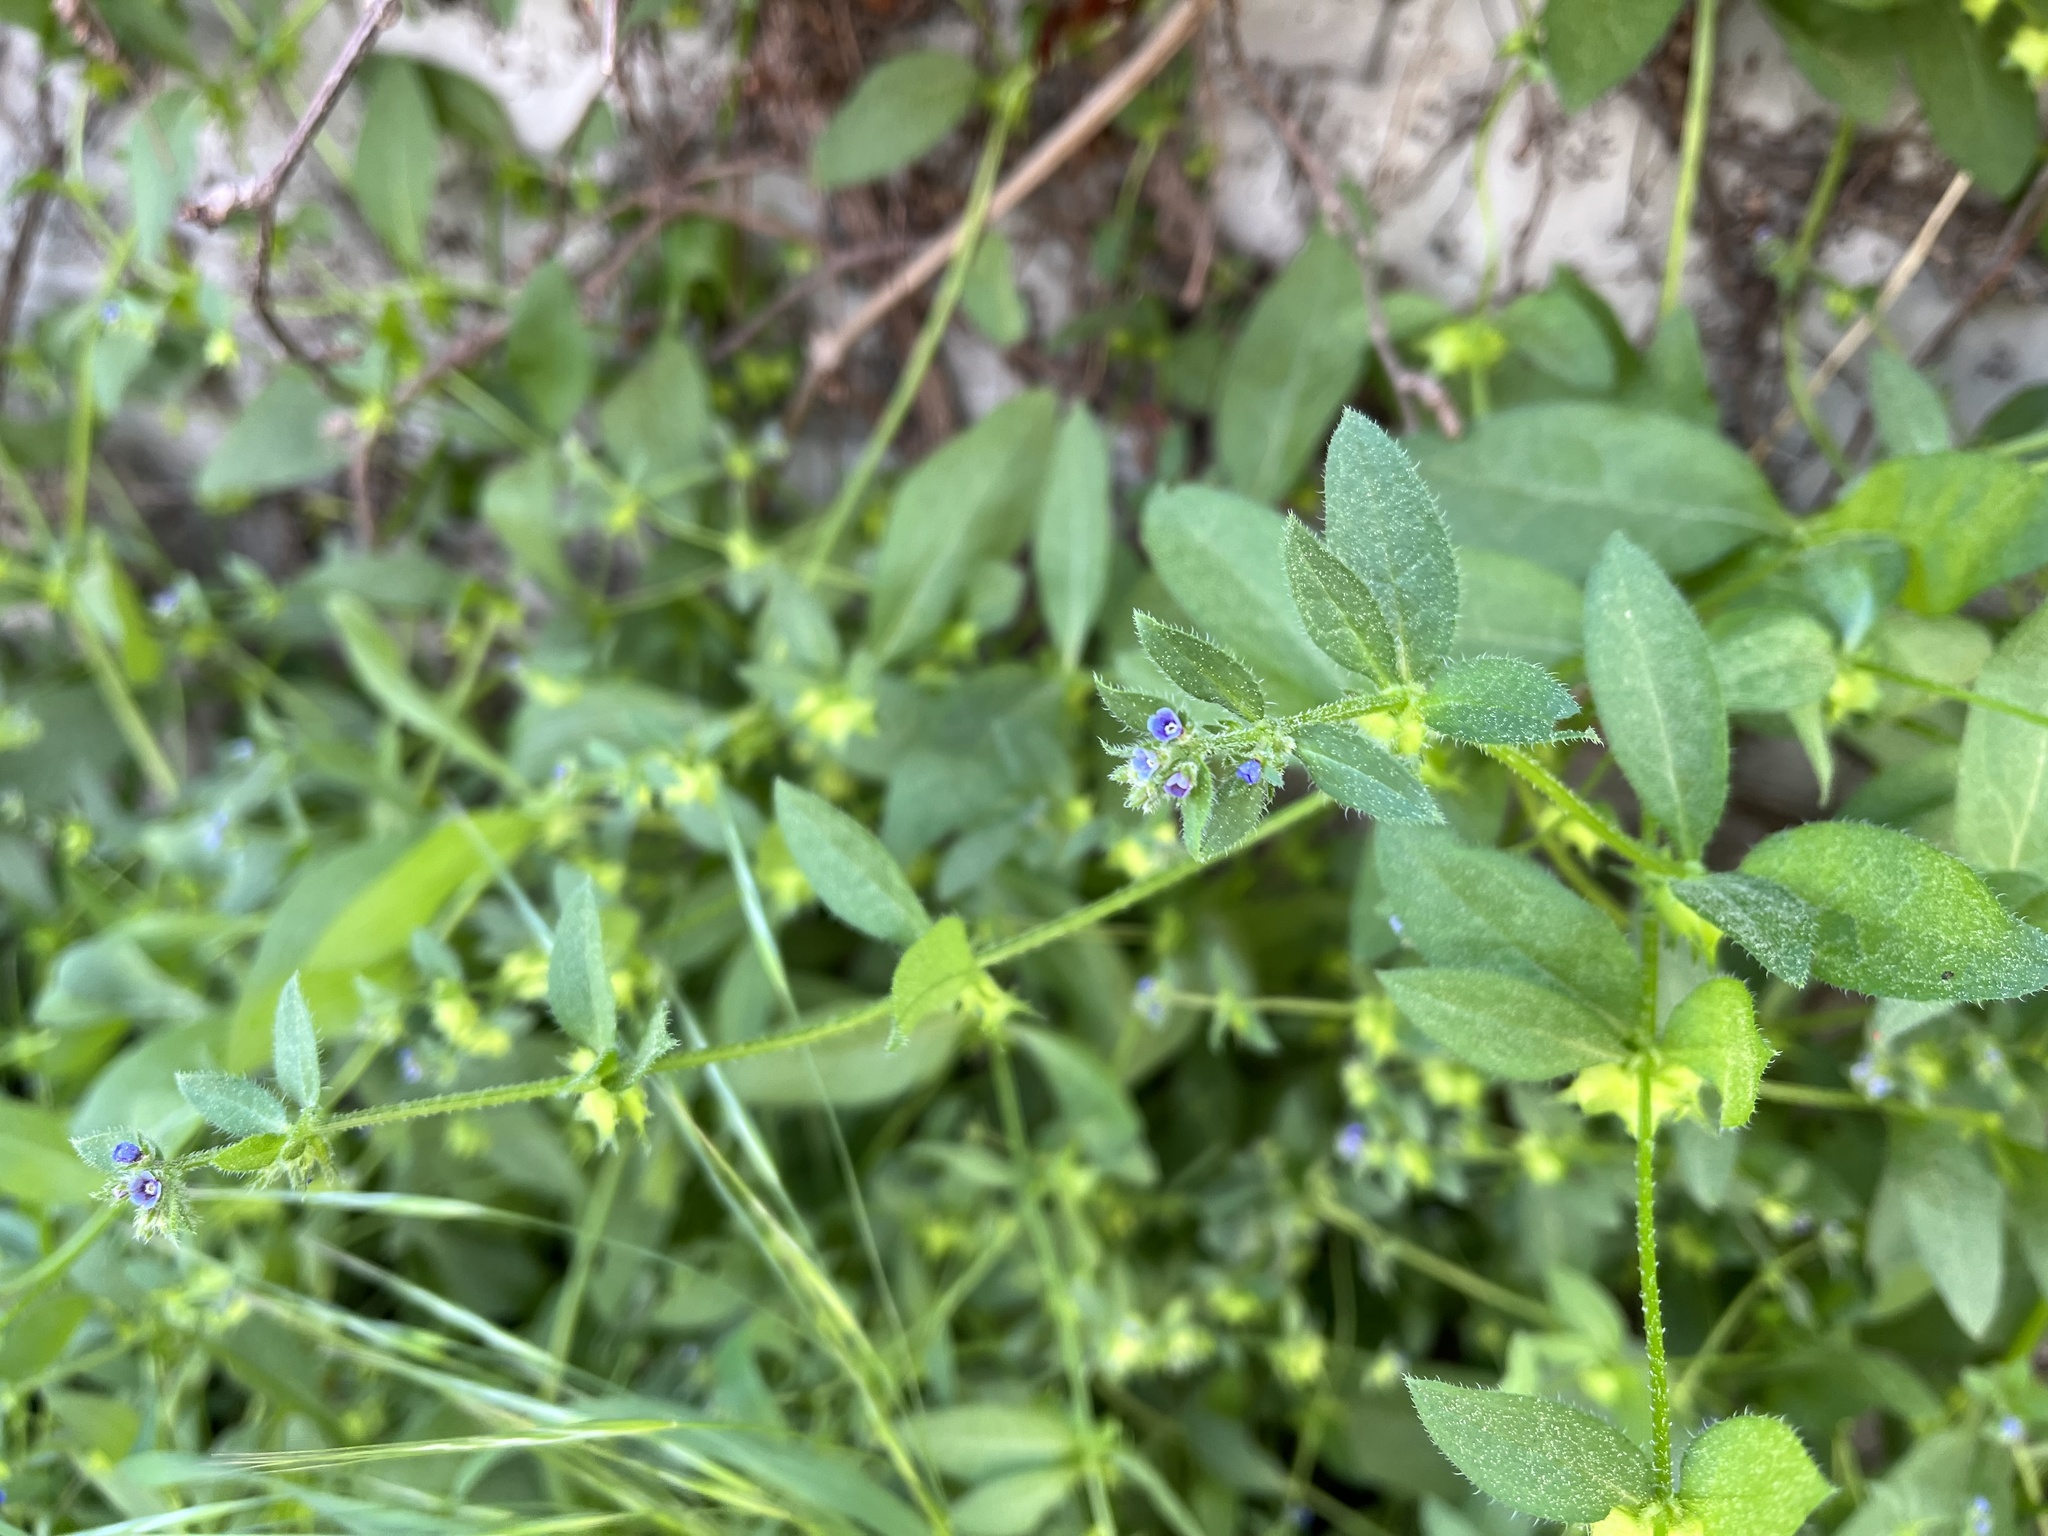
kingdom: Plantae
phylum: Tracheophyta
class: Magnoliopsida
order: Boraginales
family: Boraginaceae
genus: Asperugo
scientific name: Asperugo procumbens
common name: Madwort
